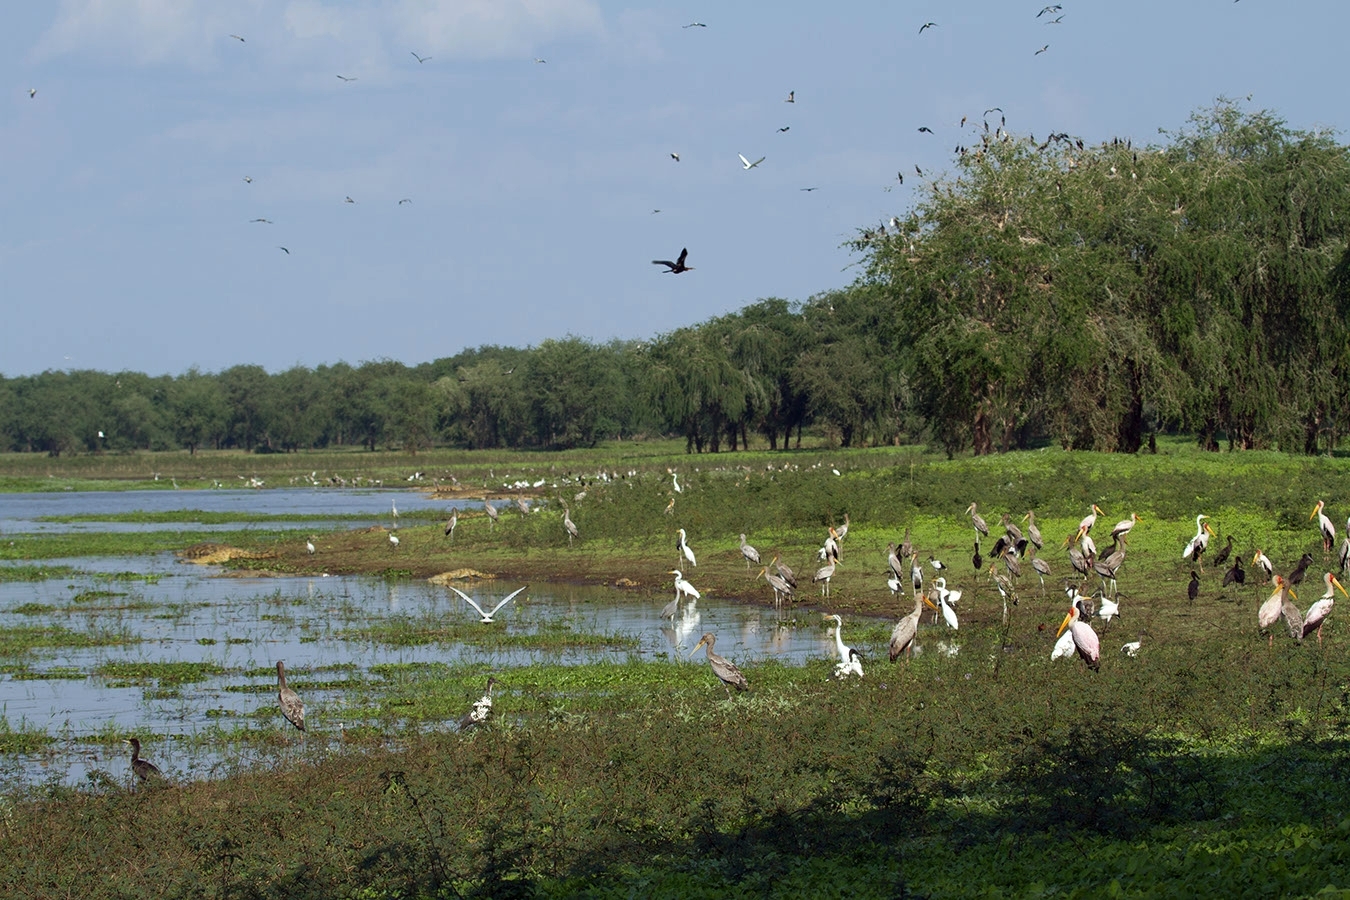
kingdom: Animalia
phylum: Chordata
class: Aves
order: Pelecaniformes
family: Ardeidae
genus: Ardea
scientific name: Ardea alba
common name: Great egret
